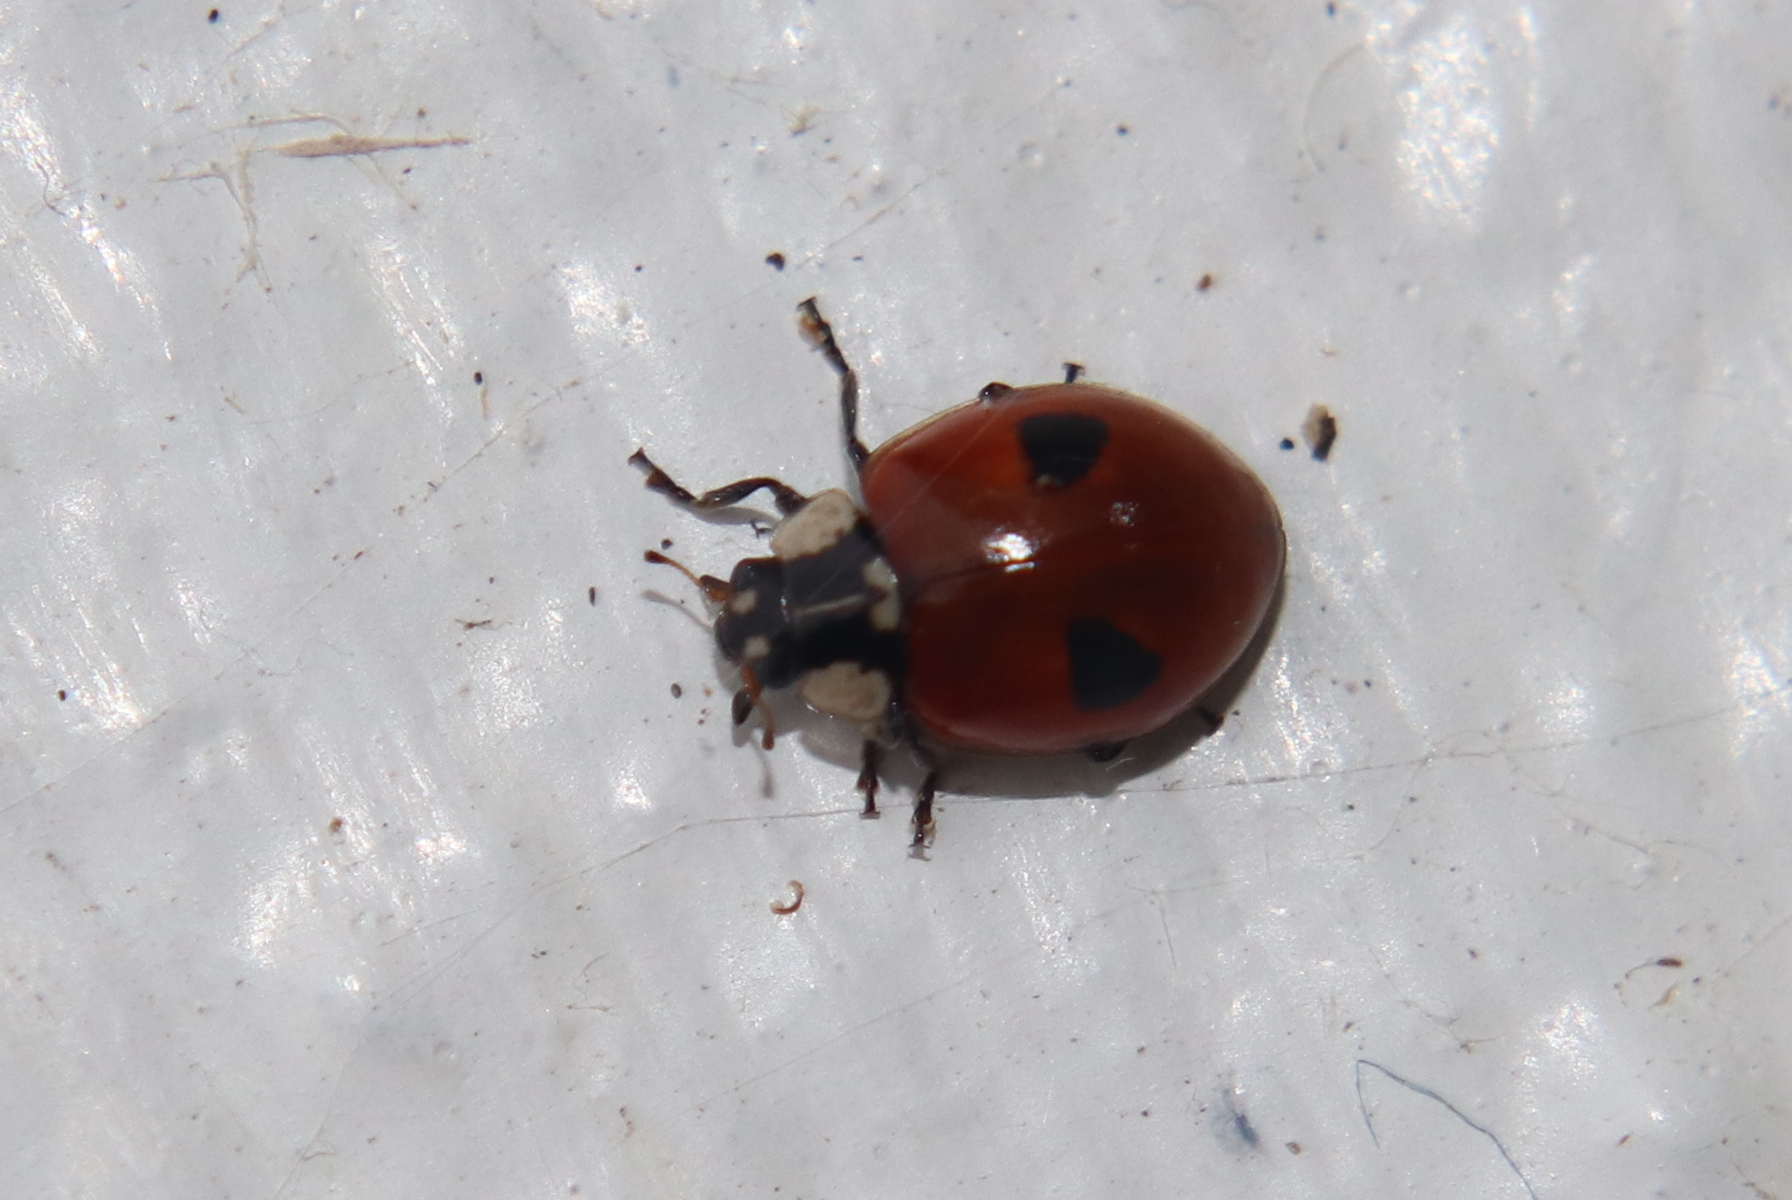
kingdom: Animalia
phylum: Arthropoda
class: Insecta
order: Coleoptera
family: Coccinellidae
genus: Adalia
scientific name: Adalia bipunctata
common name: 2-spot ladybird
